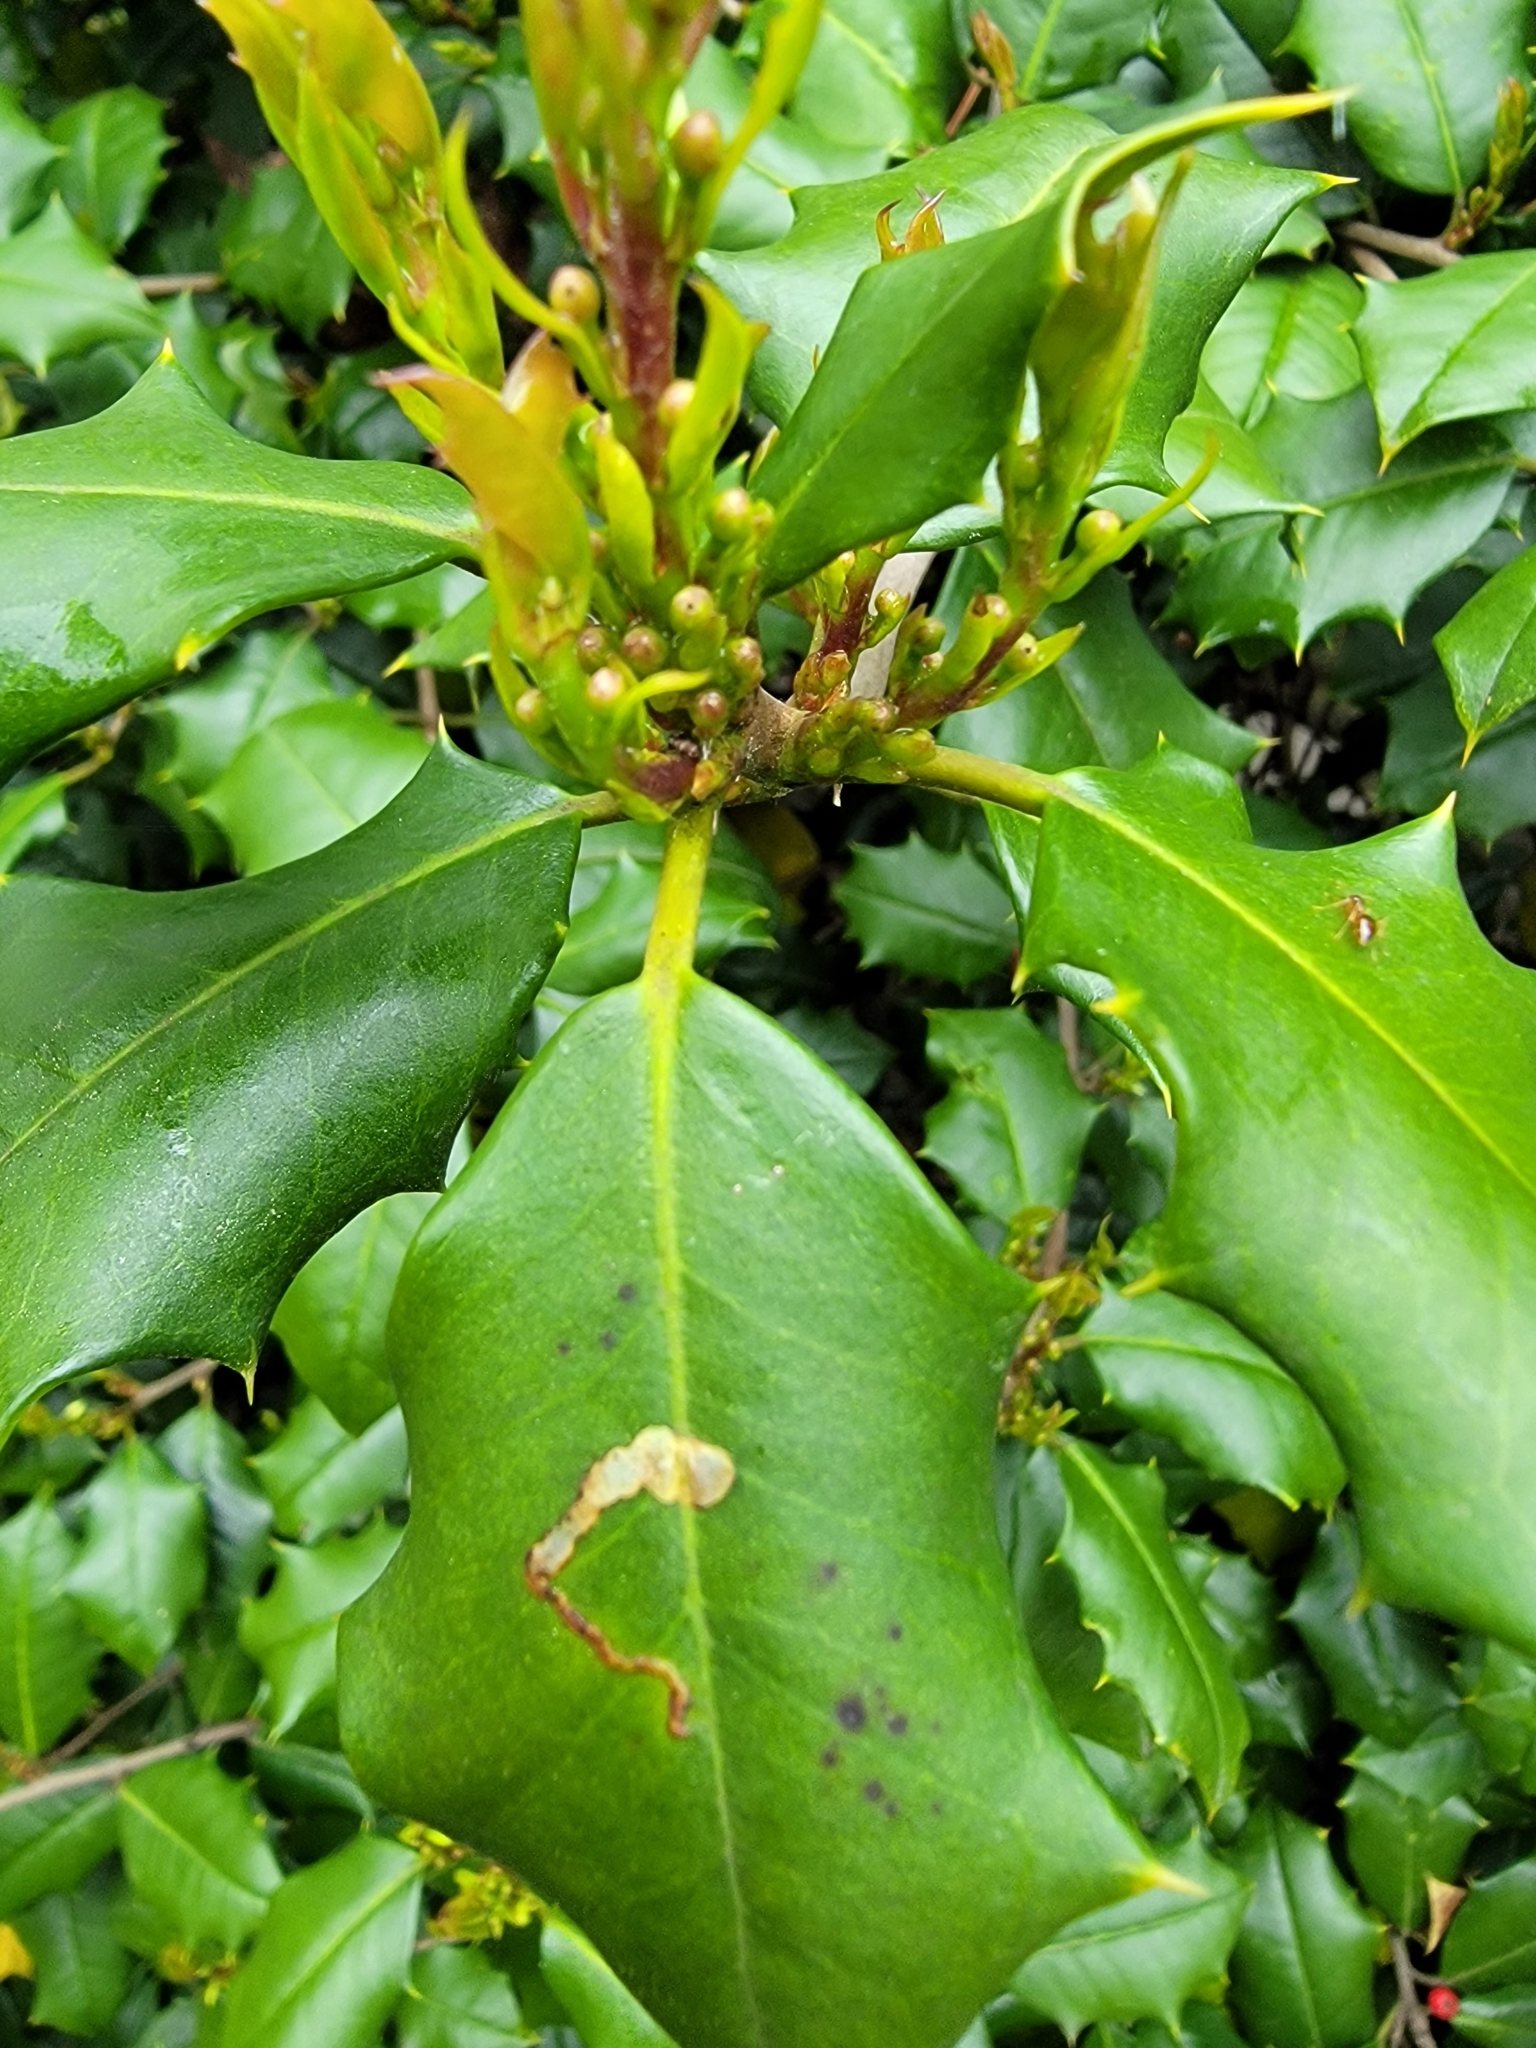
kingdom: Animalia
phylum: Arthropoda
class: Insecta
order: Diptera
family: Agromyzidae
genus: Phytomyza
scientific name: Phytomyza ilicicola
